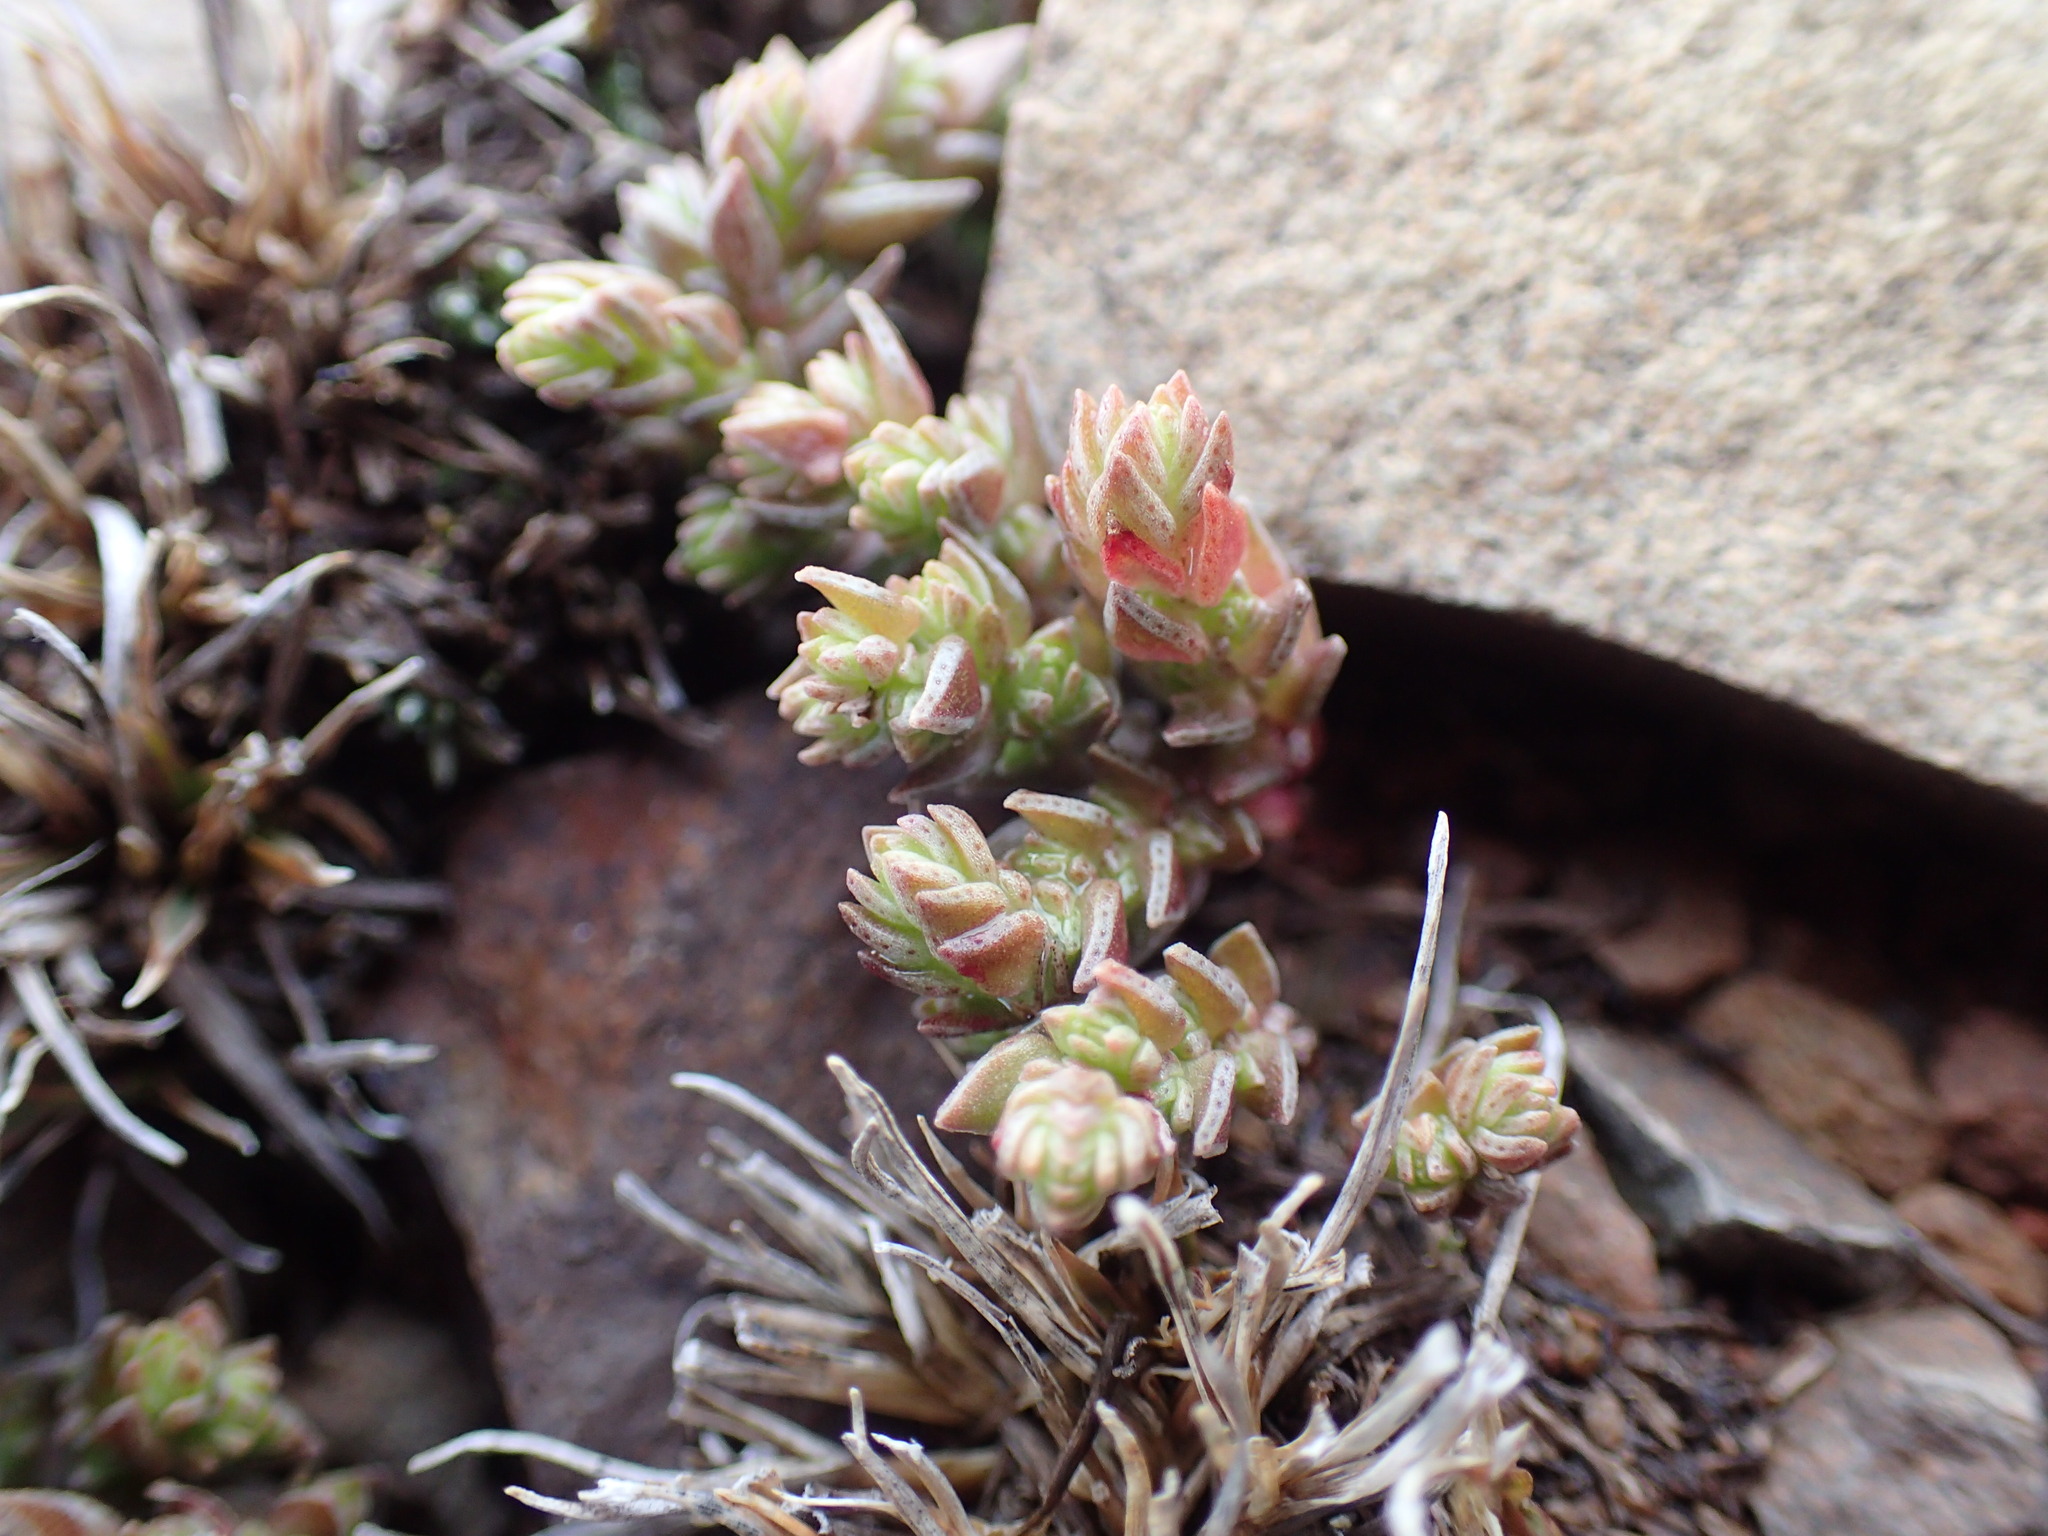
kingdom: Plantae
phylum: Tracheophyta
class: Magnoliopsida
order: Saxifragales
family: Crassulaceae
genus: Crassula
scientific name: Crassula lanceolata
